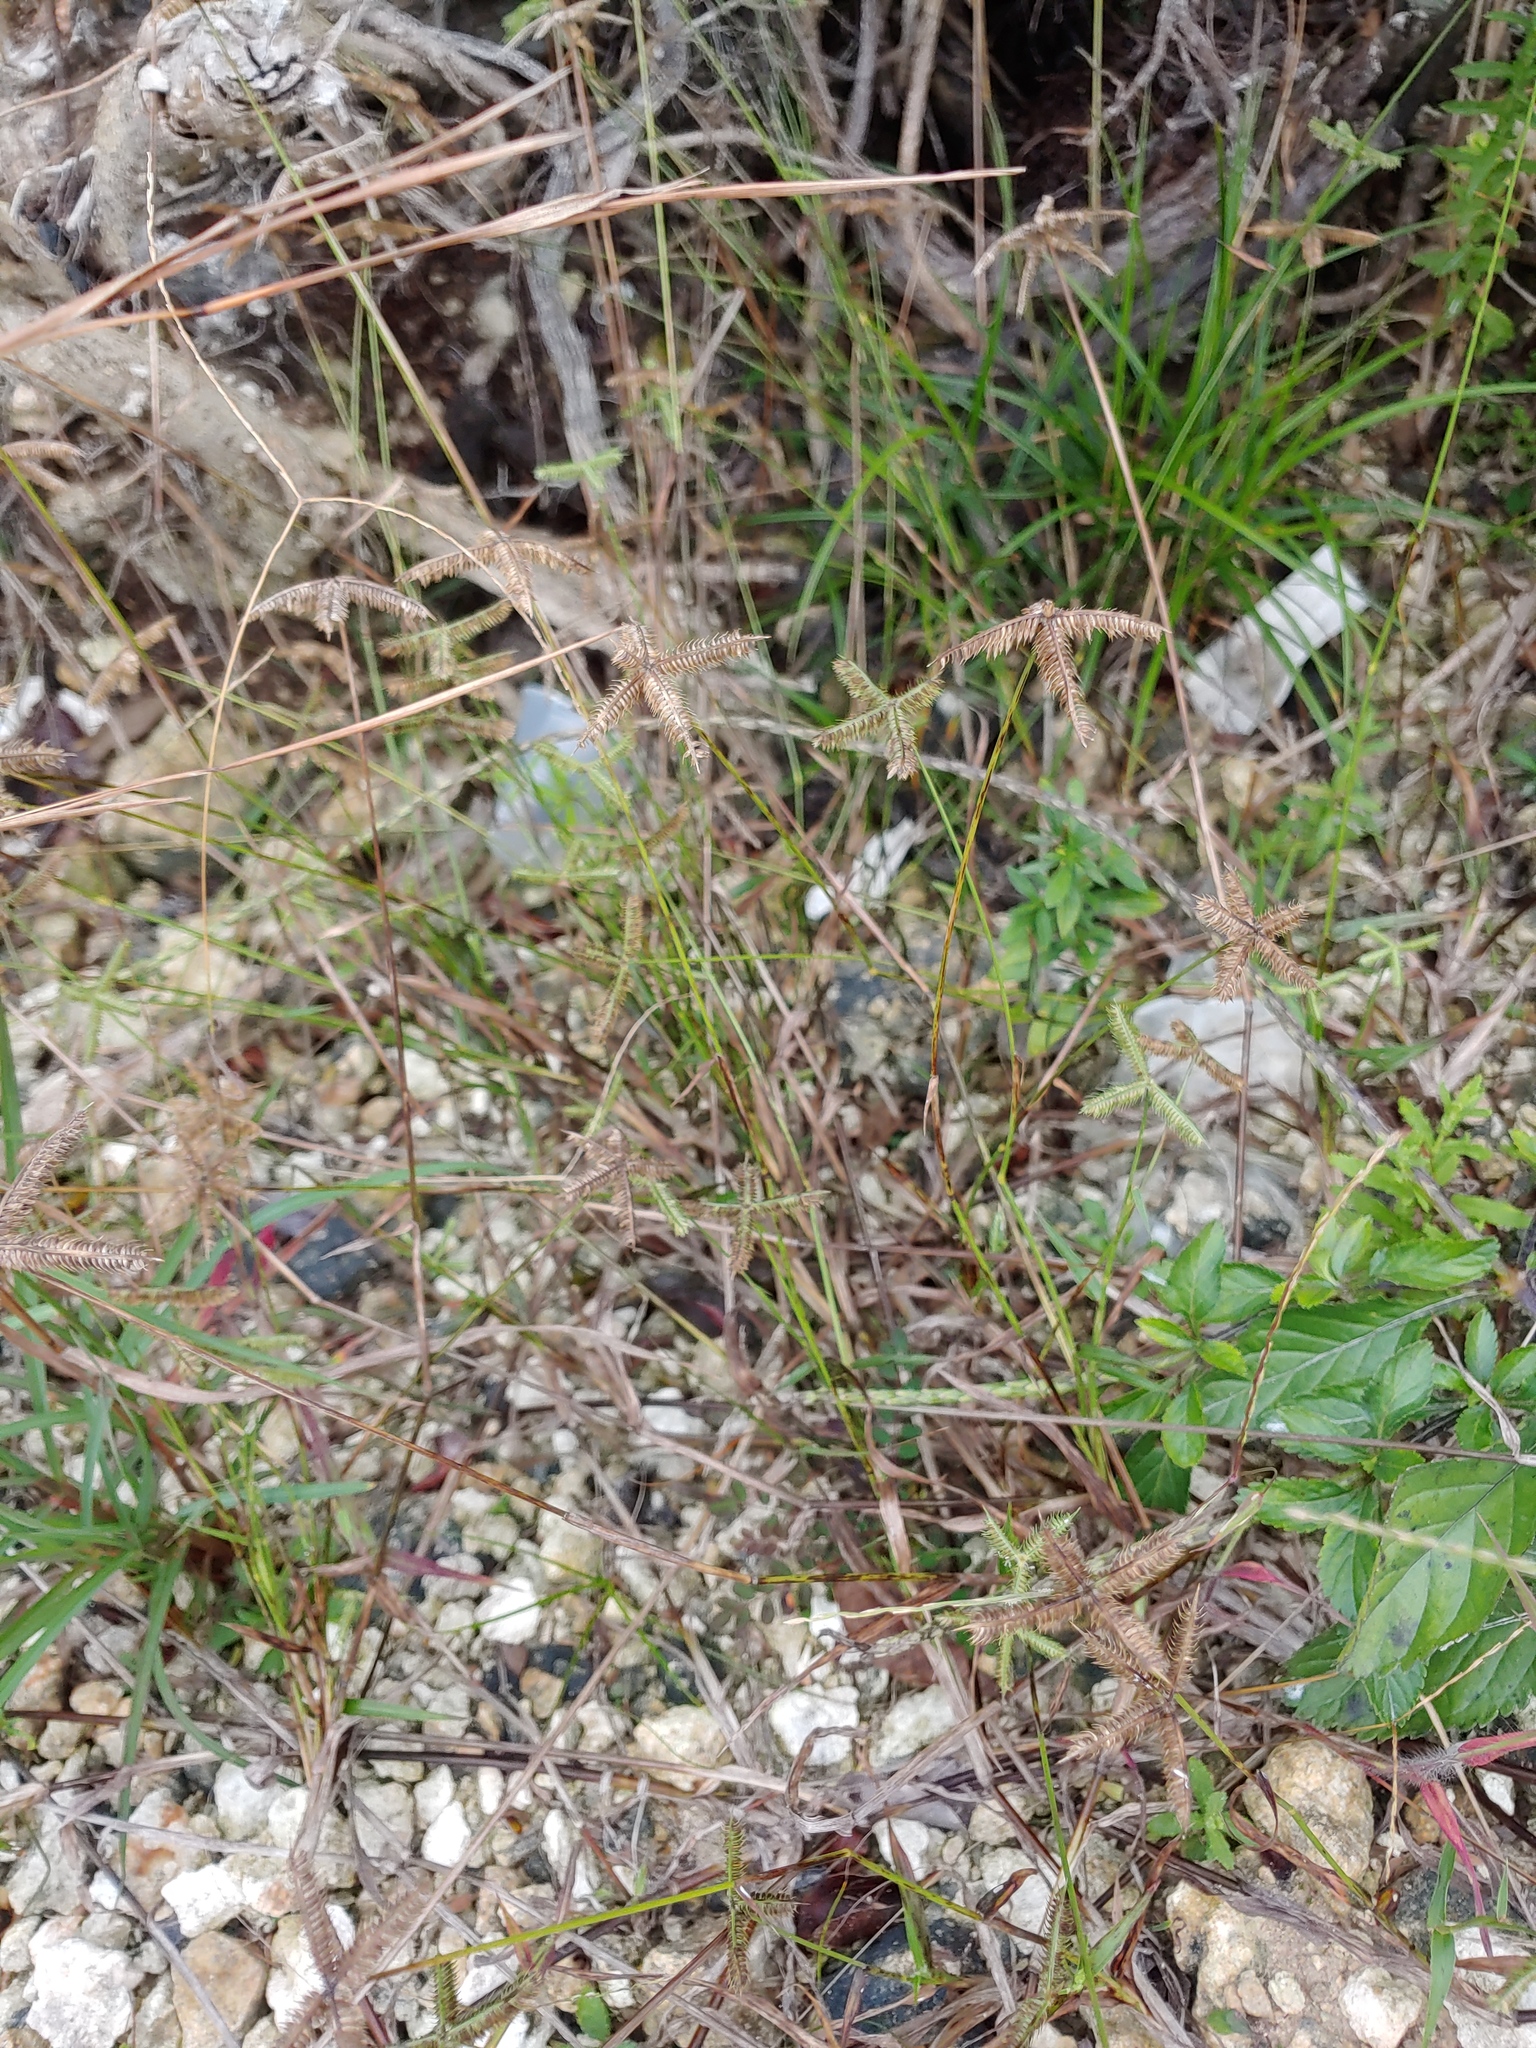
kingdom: Plantae
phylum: Tracheophyta
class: Liliopsida
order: Poales
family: Poaceae
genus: Dactyloctenium
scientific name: Dactyloctenium aegyptium
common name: Egyptian grass
